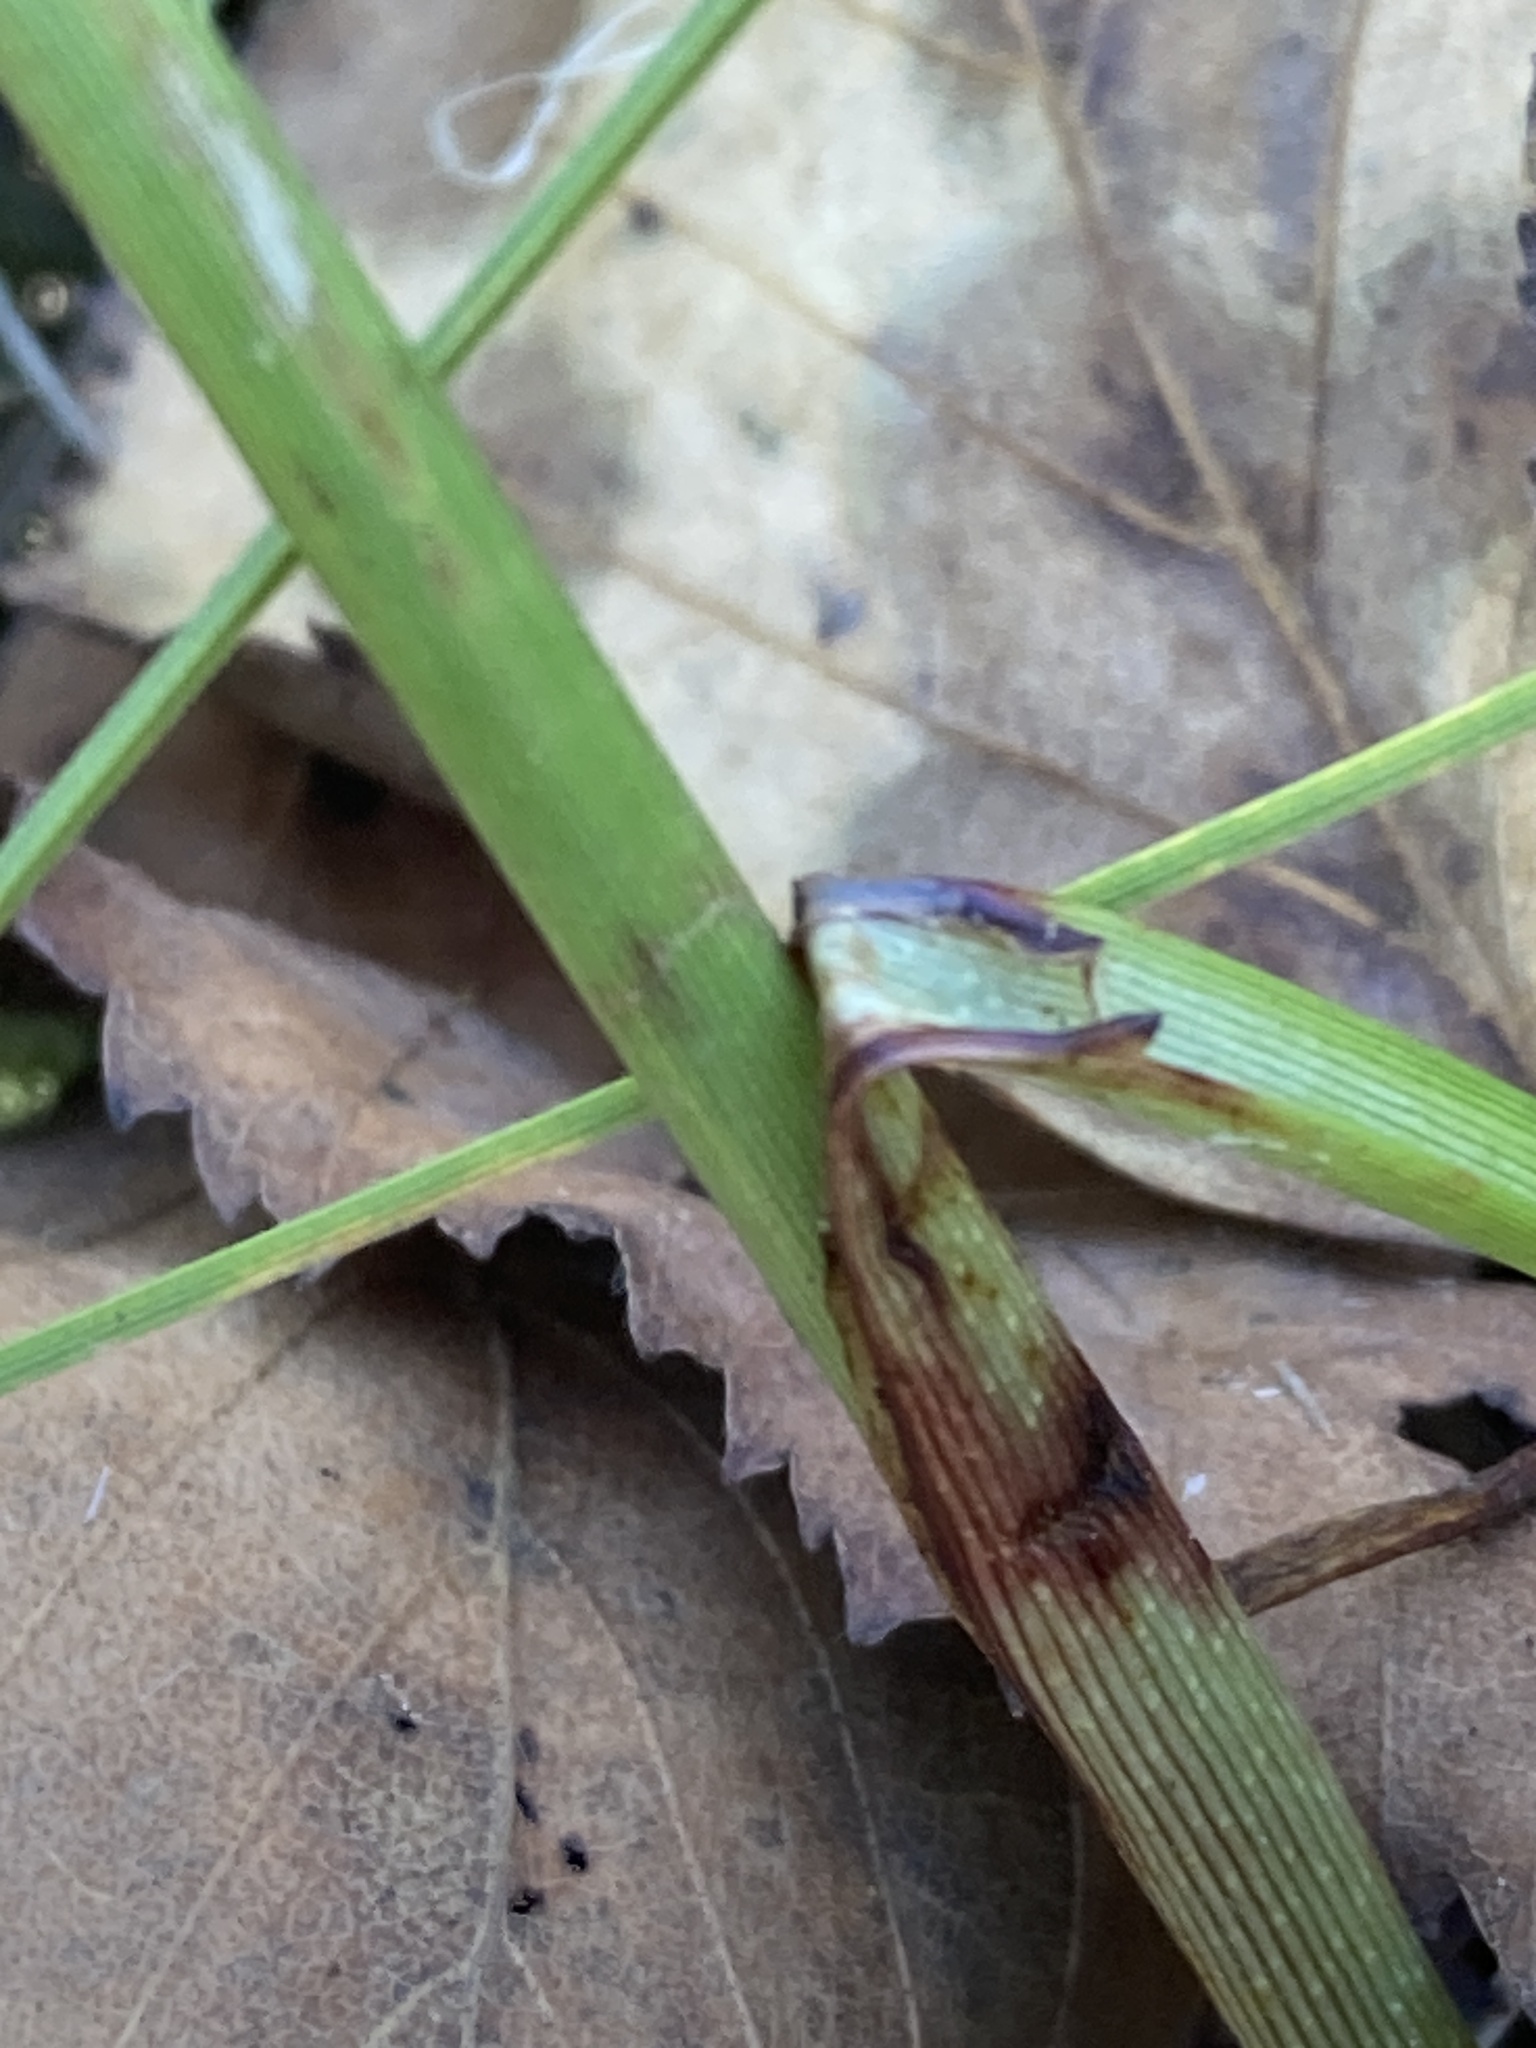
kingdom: Plantae
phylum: Tracheophyta
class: Liliopsida
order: Poales
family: Cyperaceae
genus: Eriophorum
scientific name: Eriophorum angustifolium
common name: Common cottongrass
